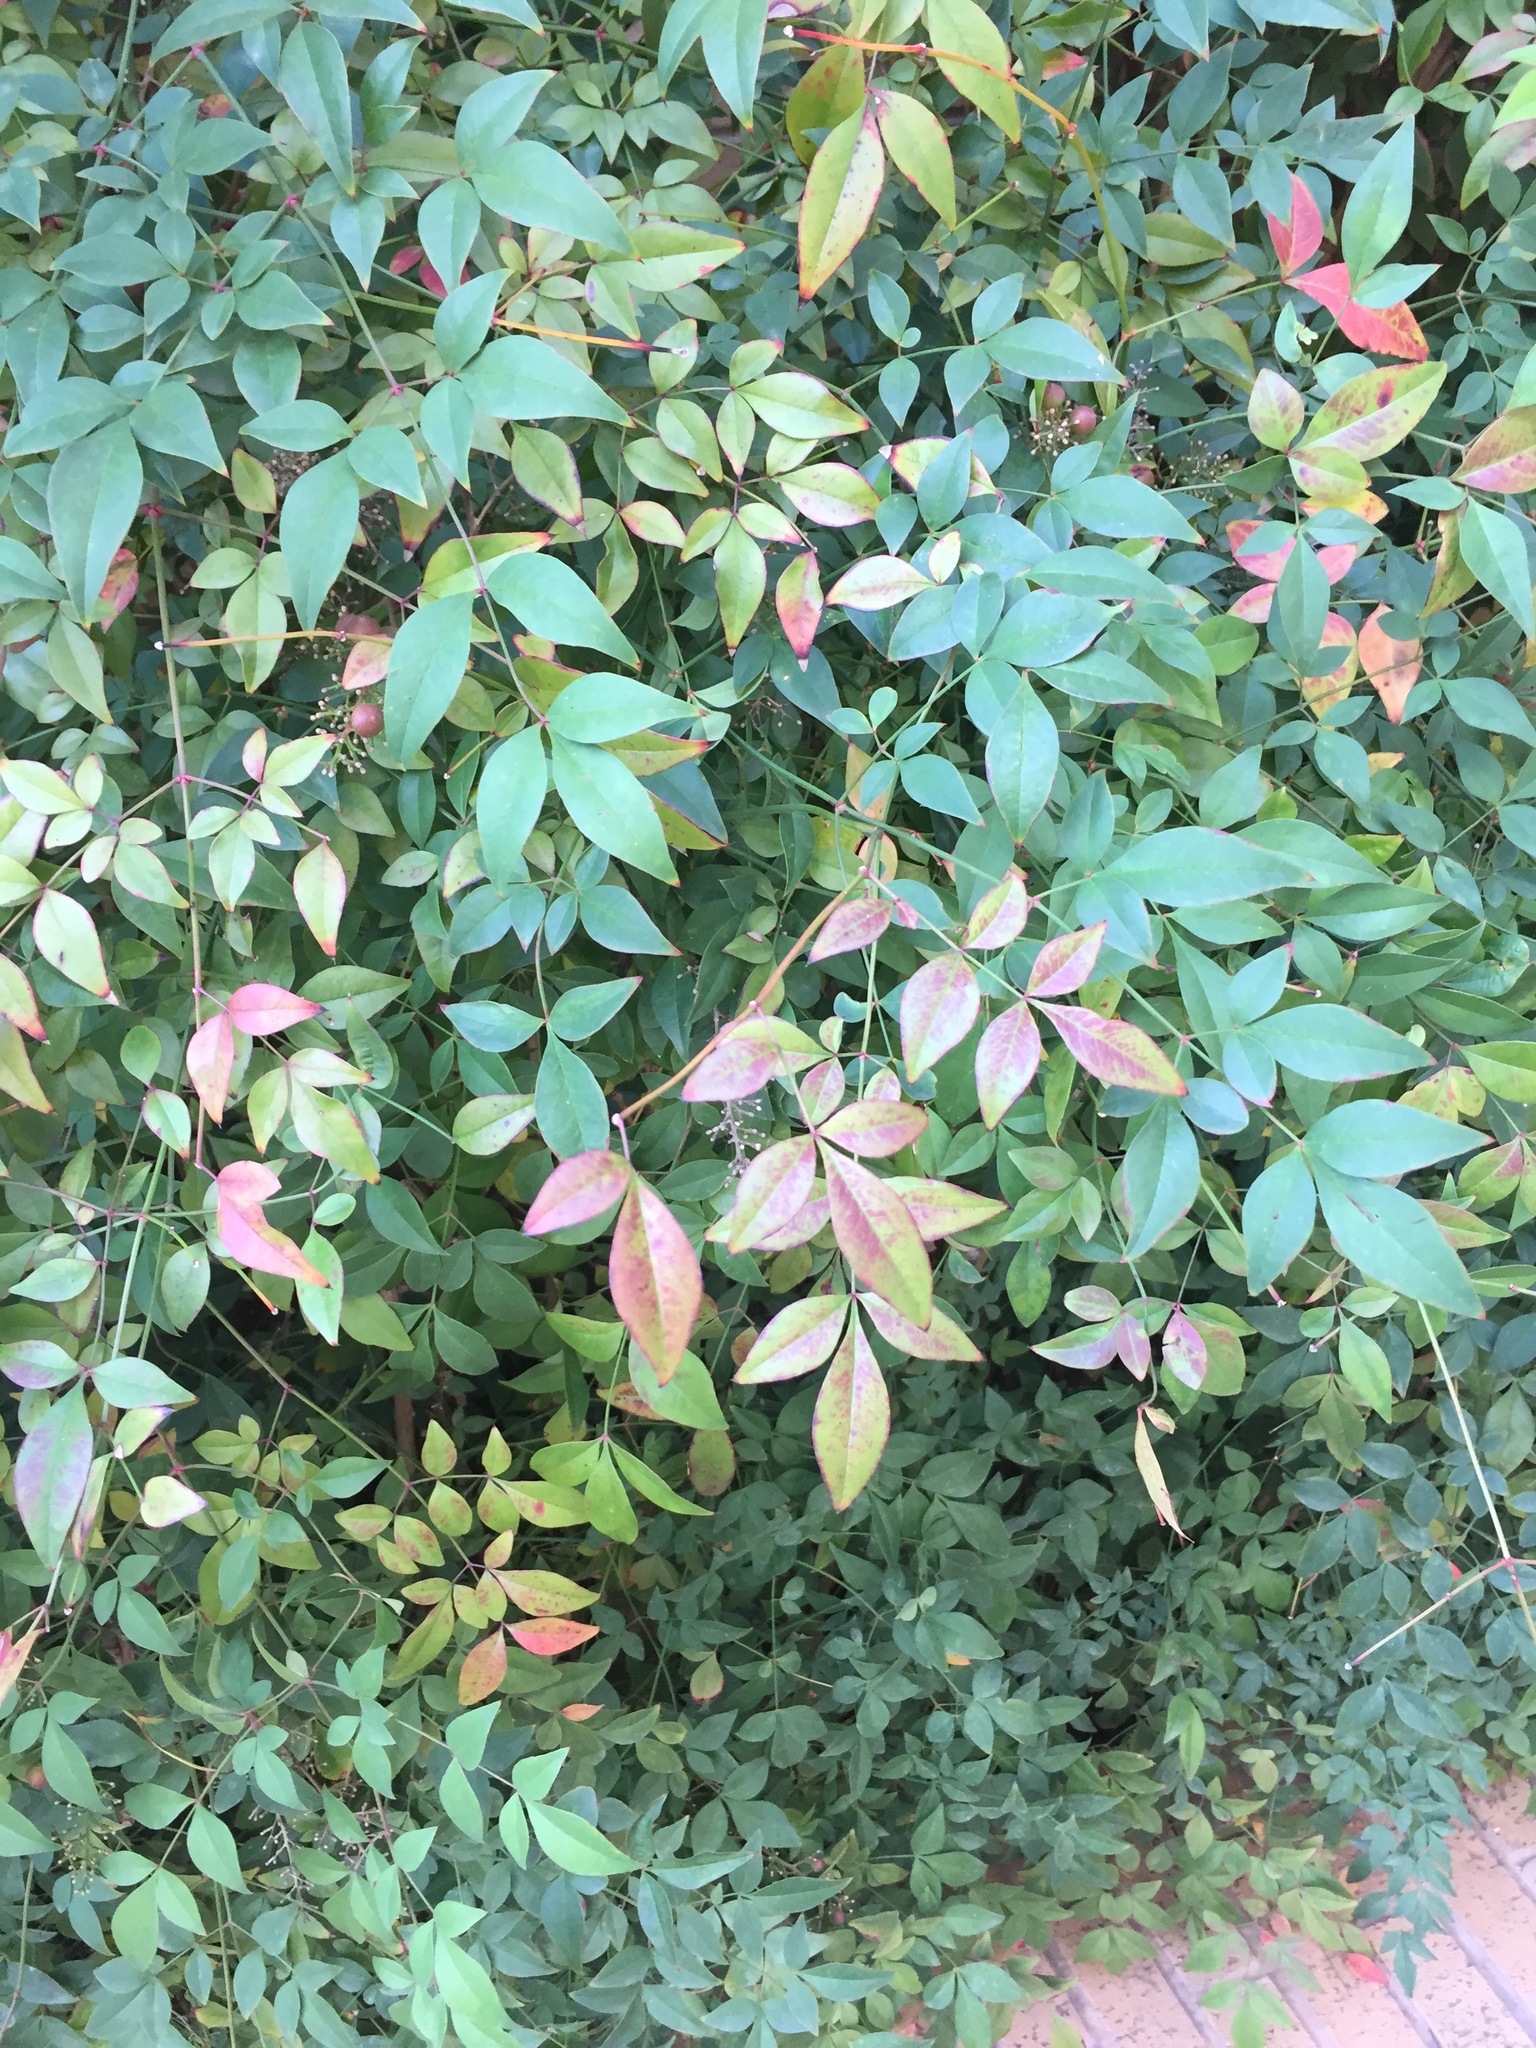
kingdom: Plantae
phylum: Tracheophyta
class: Magnoliopsida
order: Ranunculales
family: Berberidaceae
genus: Nandina
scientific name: Nandina domestica
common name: Sacred bamboo
